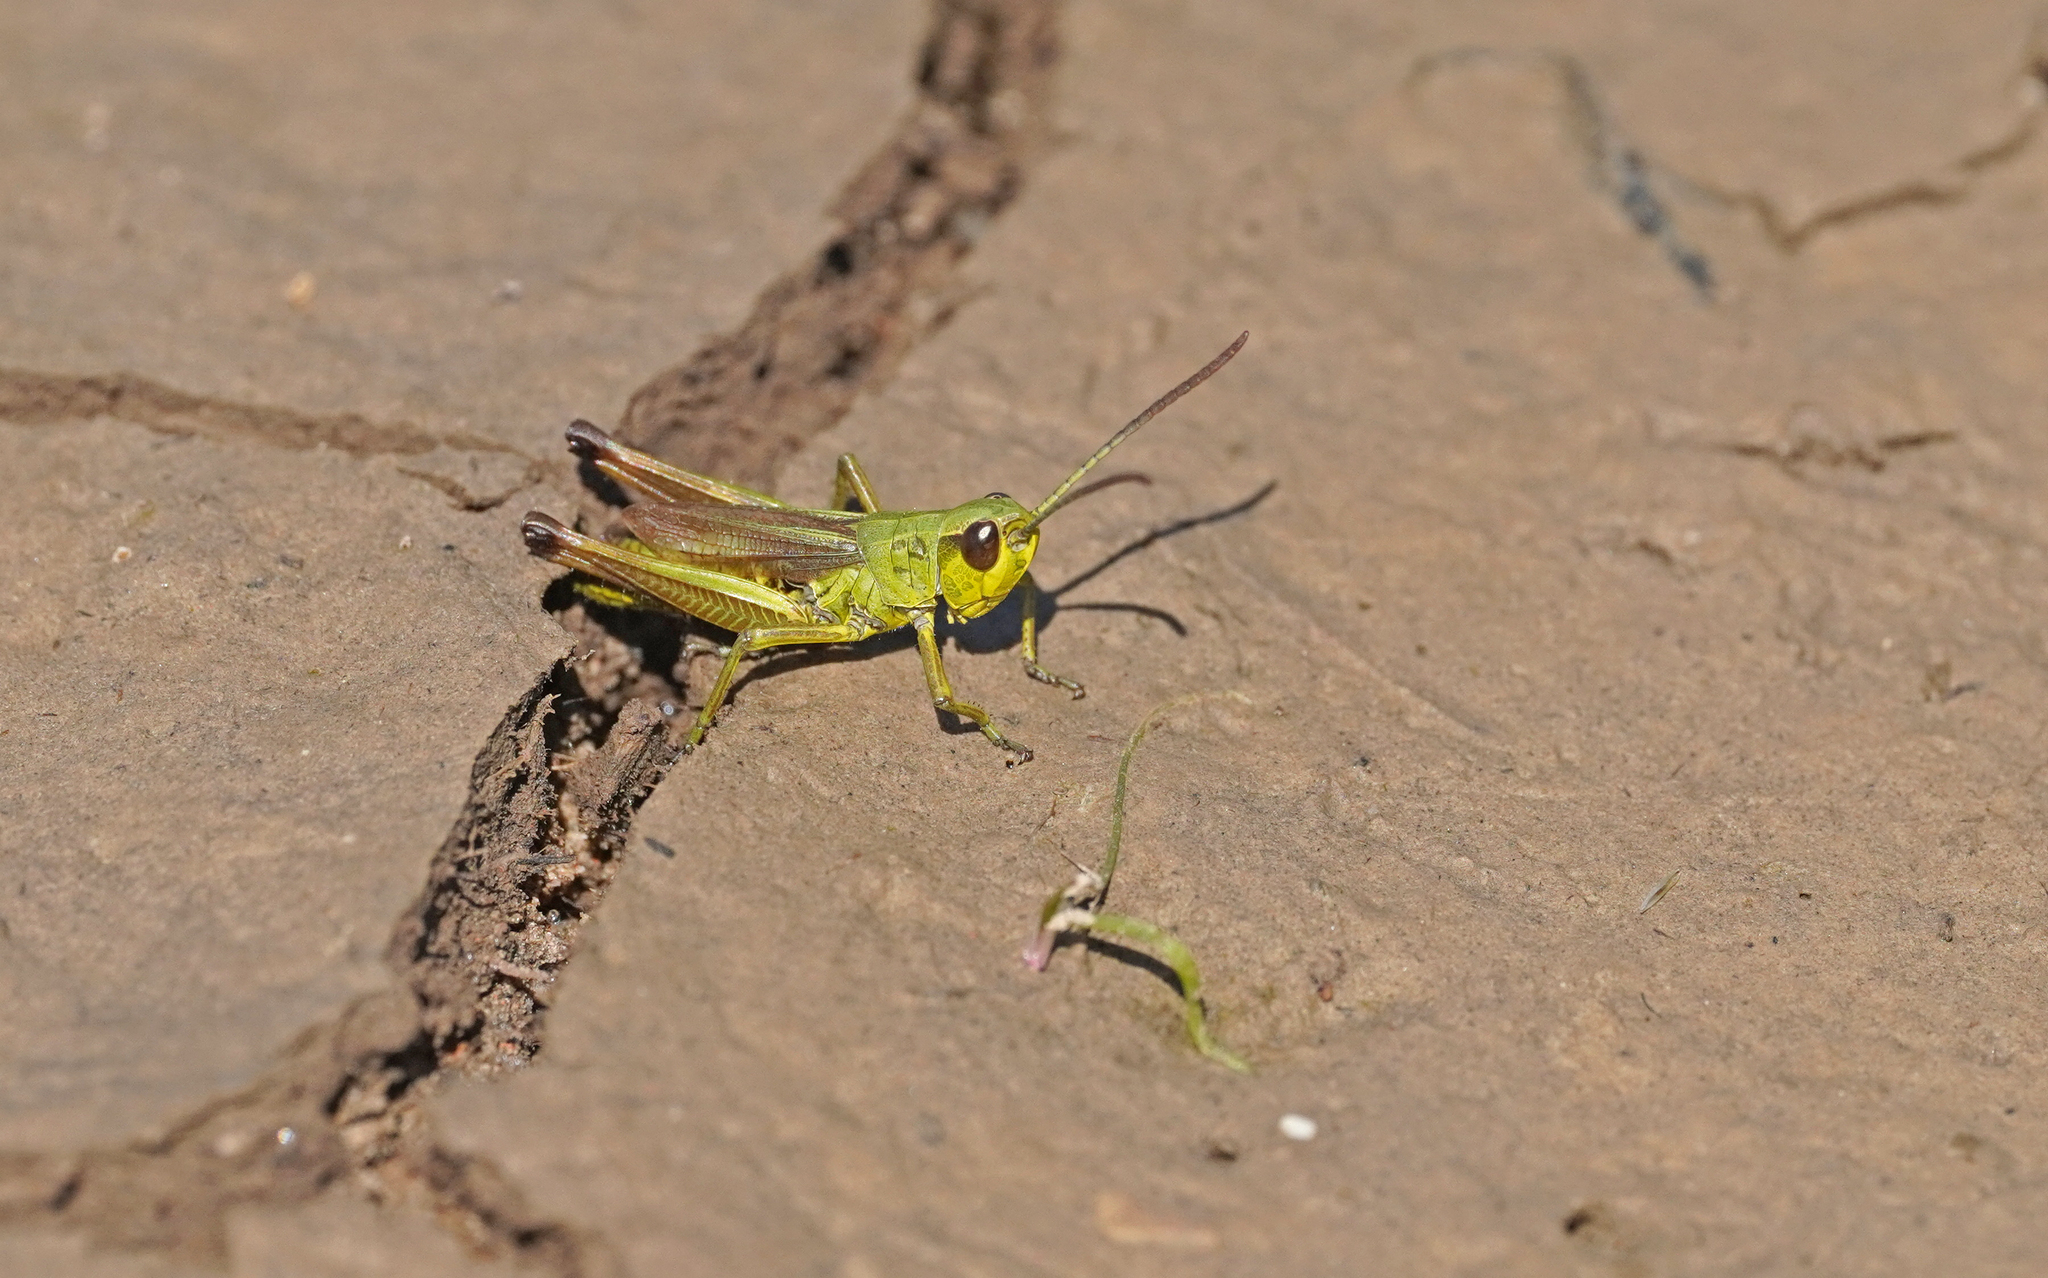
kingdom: Animalia
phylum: Arthropoda
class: Insecta
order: Orthoptera
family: Acrididae
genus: Pseudochorthippus
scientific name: Pseudochorthippus parallelus
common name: Meadow grasshopper
